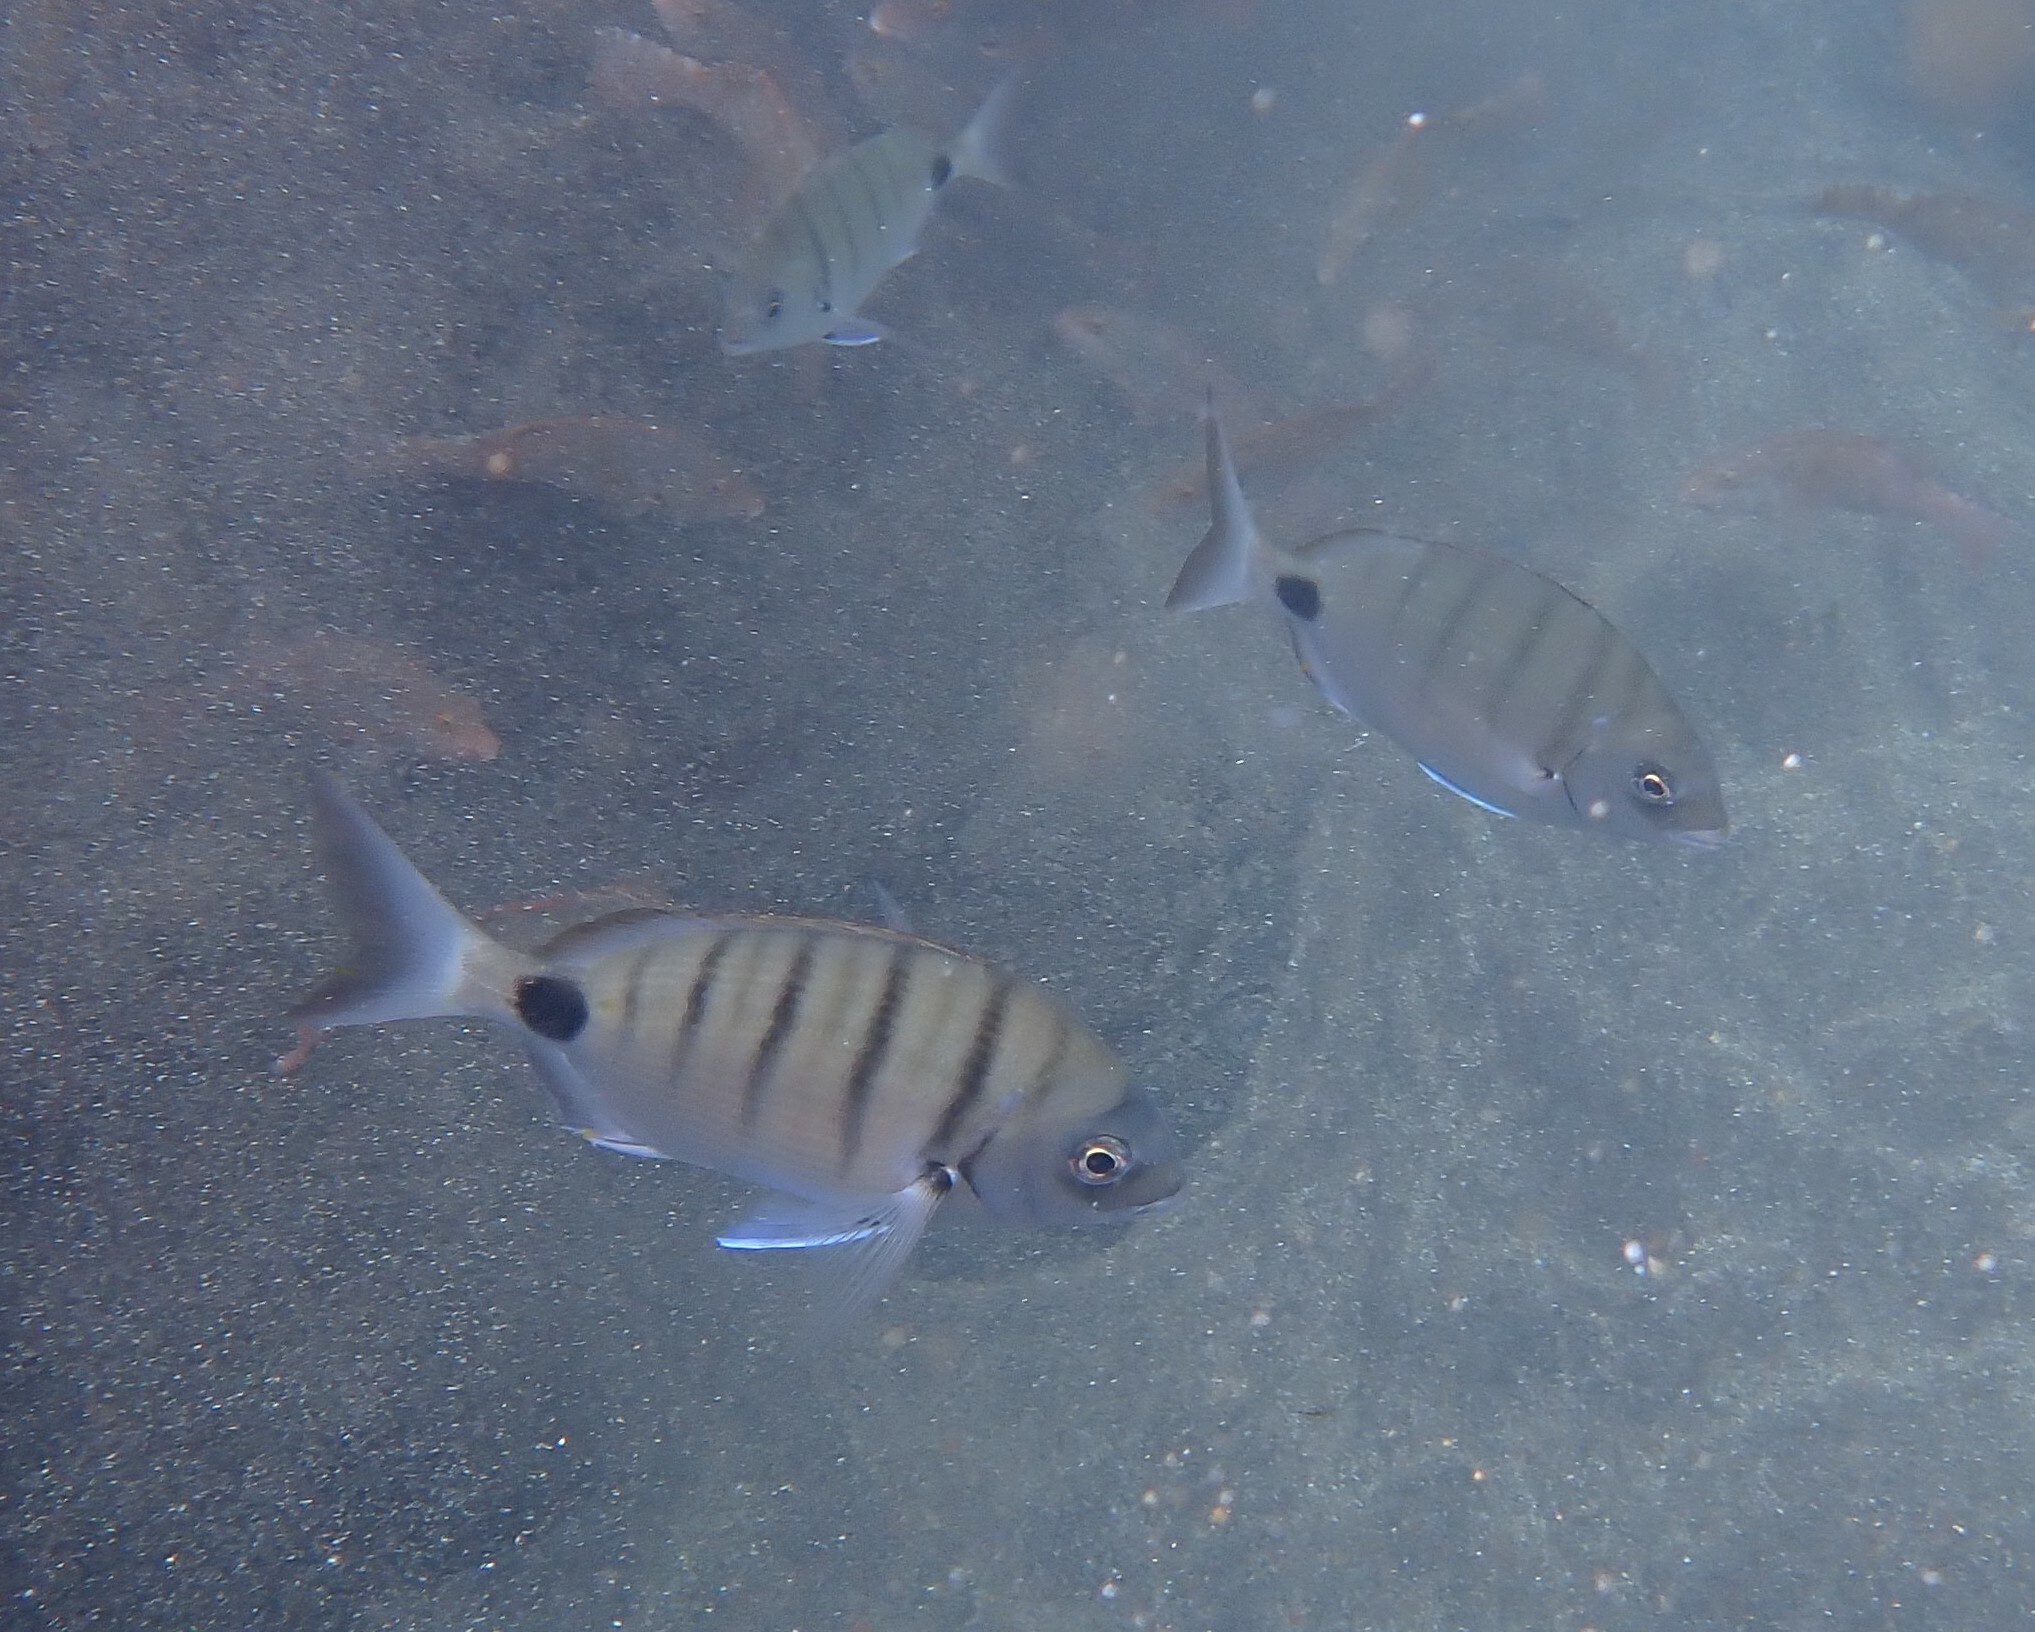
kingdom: Animalia
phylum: Chordata
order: Perciformes
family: Sparidae
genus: Diplodus
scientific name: Diplodus cadenati
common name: Moroccan white seabream
